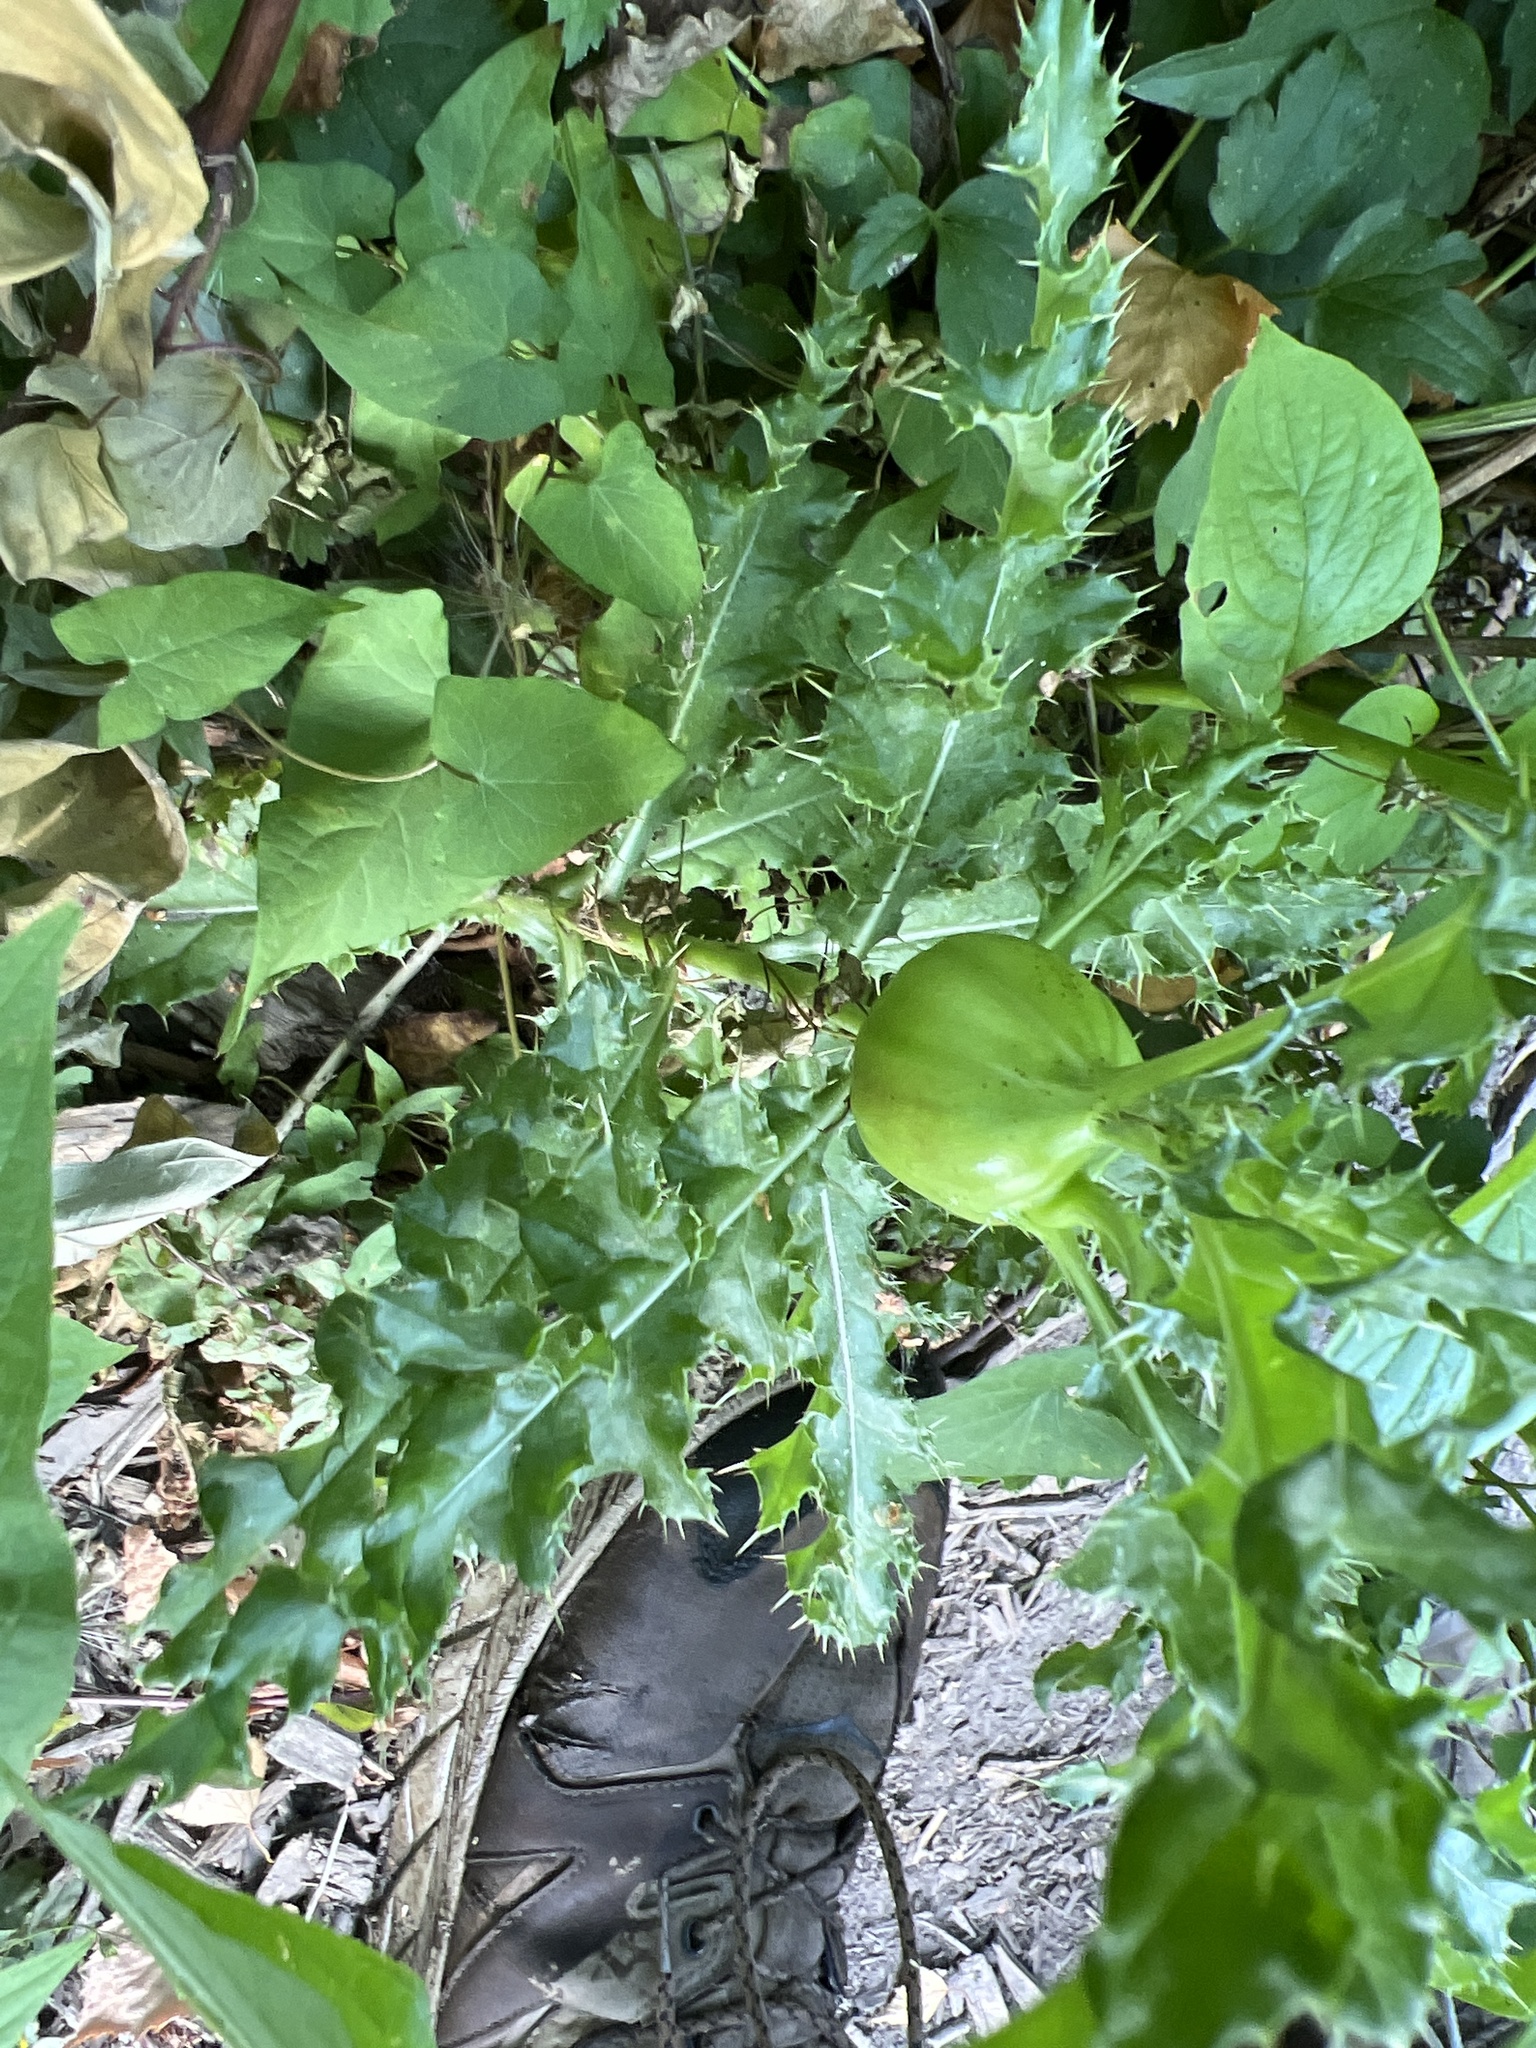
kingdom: Plantae
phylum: Tracheophyta
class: Magnoliopsida
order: Asterales
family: Asteraceae
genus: Cirsium
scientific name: Cirsium arvense
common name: Creeping thistle
